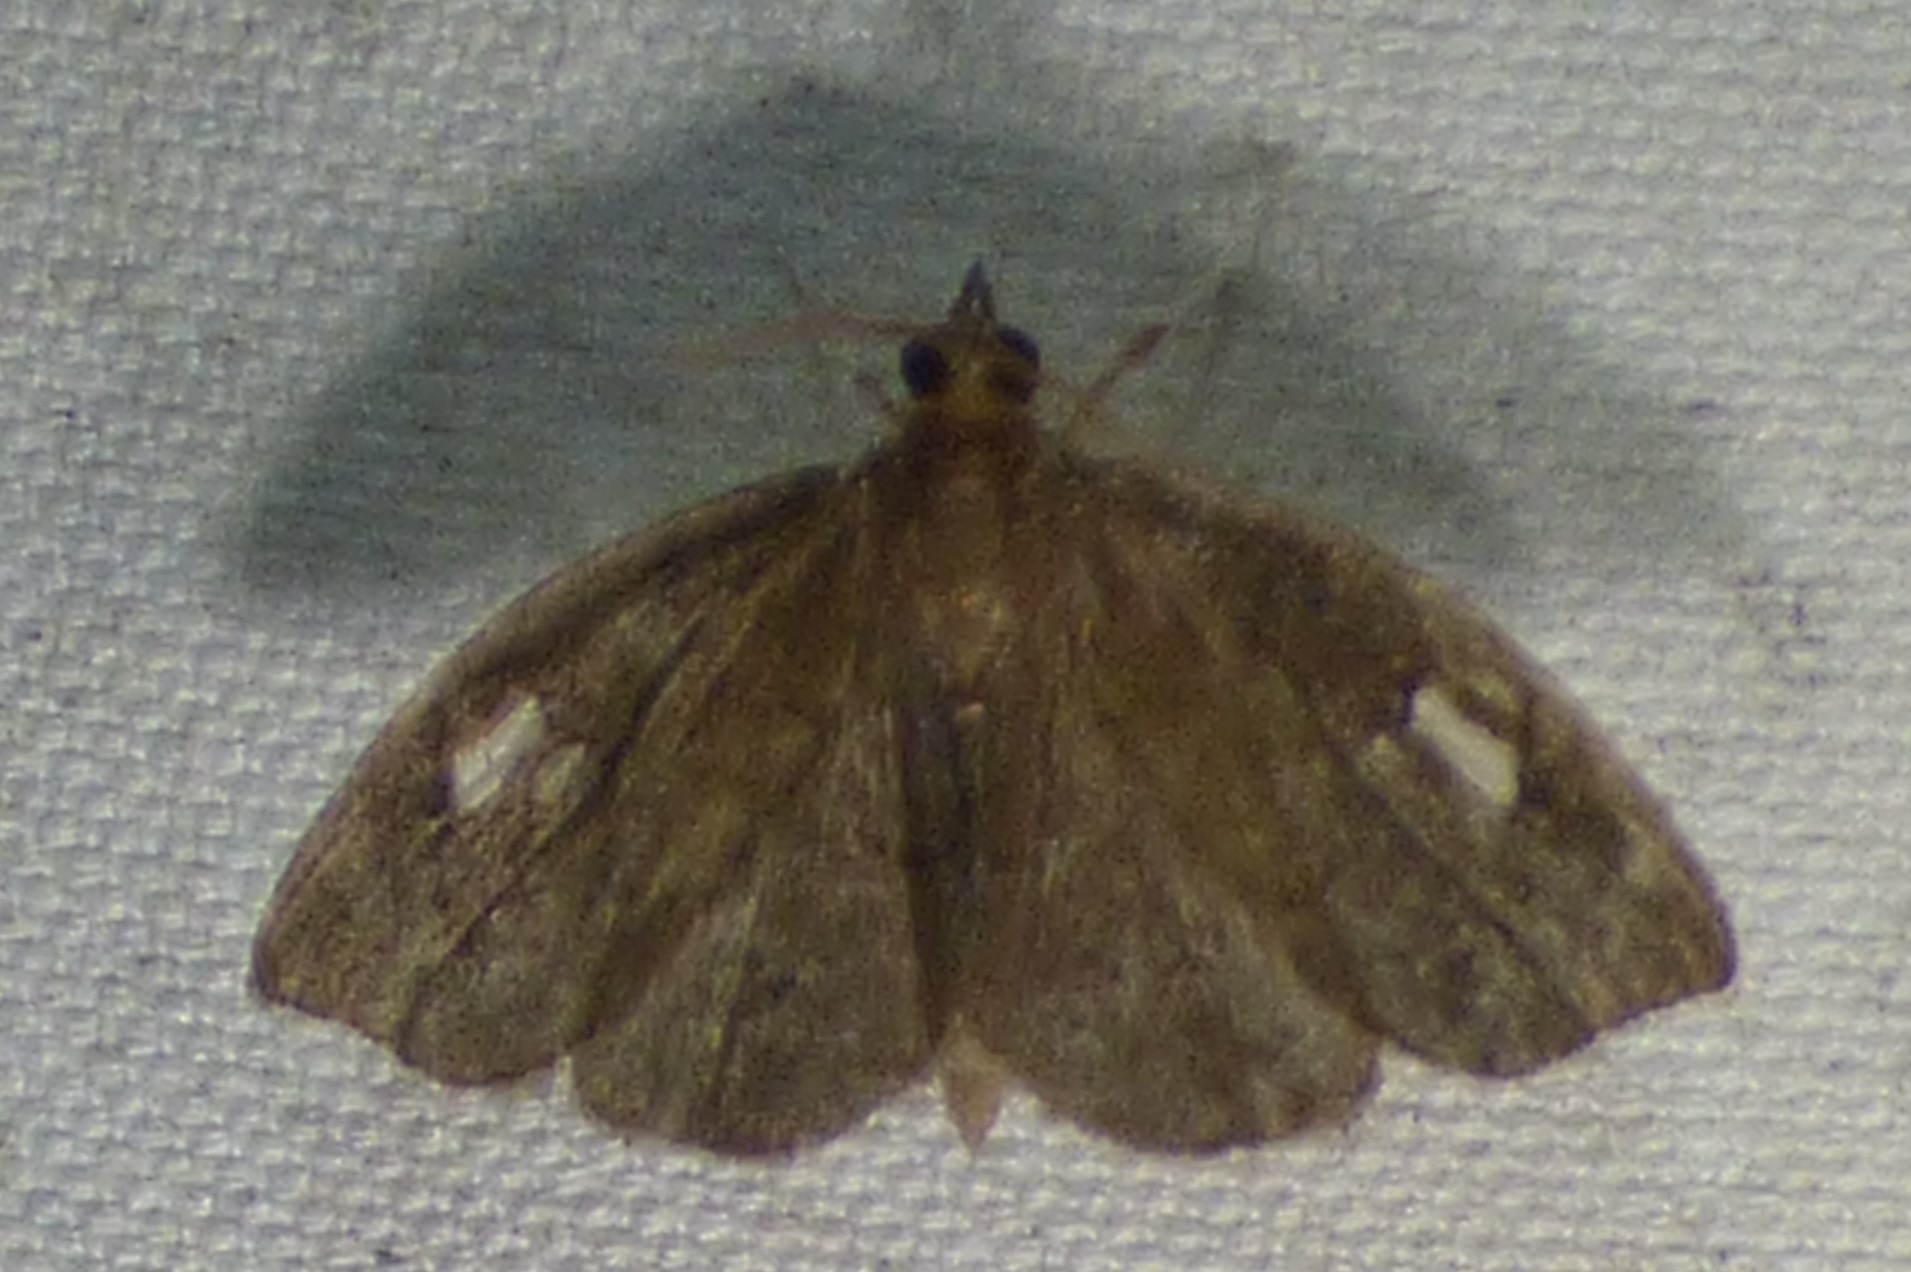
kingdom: Animalia
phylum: Arthropoda
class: Insecta
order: Lepidoptera
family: Crambidae
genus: Perispasta
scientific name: Perispasta caeculalis
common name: Titian peale's moth
